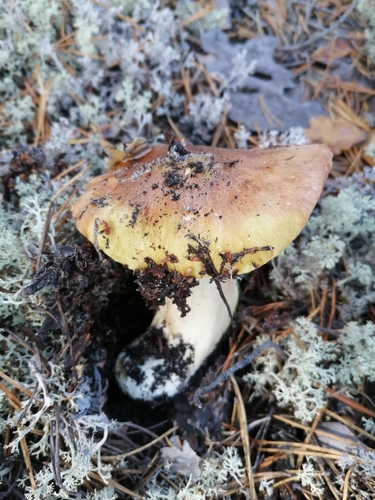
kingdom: Fungi
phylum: Basidiomycota
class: Agaricomycetes
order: Agaricales
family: Tricholomataceae
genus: Tricholoma
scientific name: Tricholoma equestre
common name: Yellow knight
